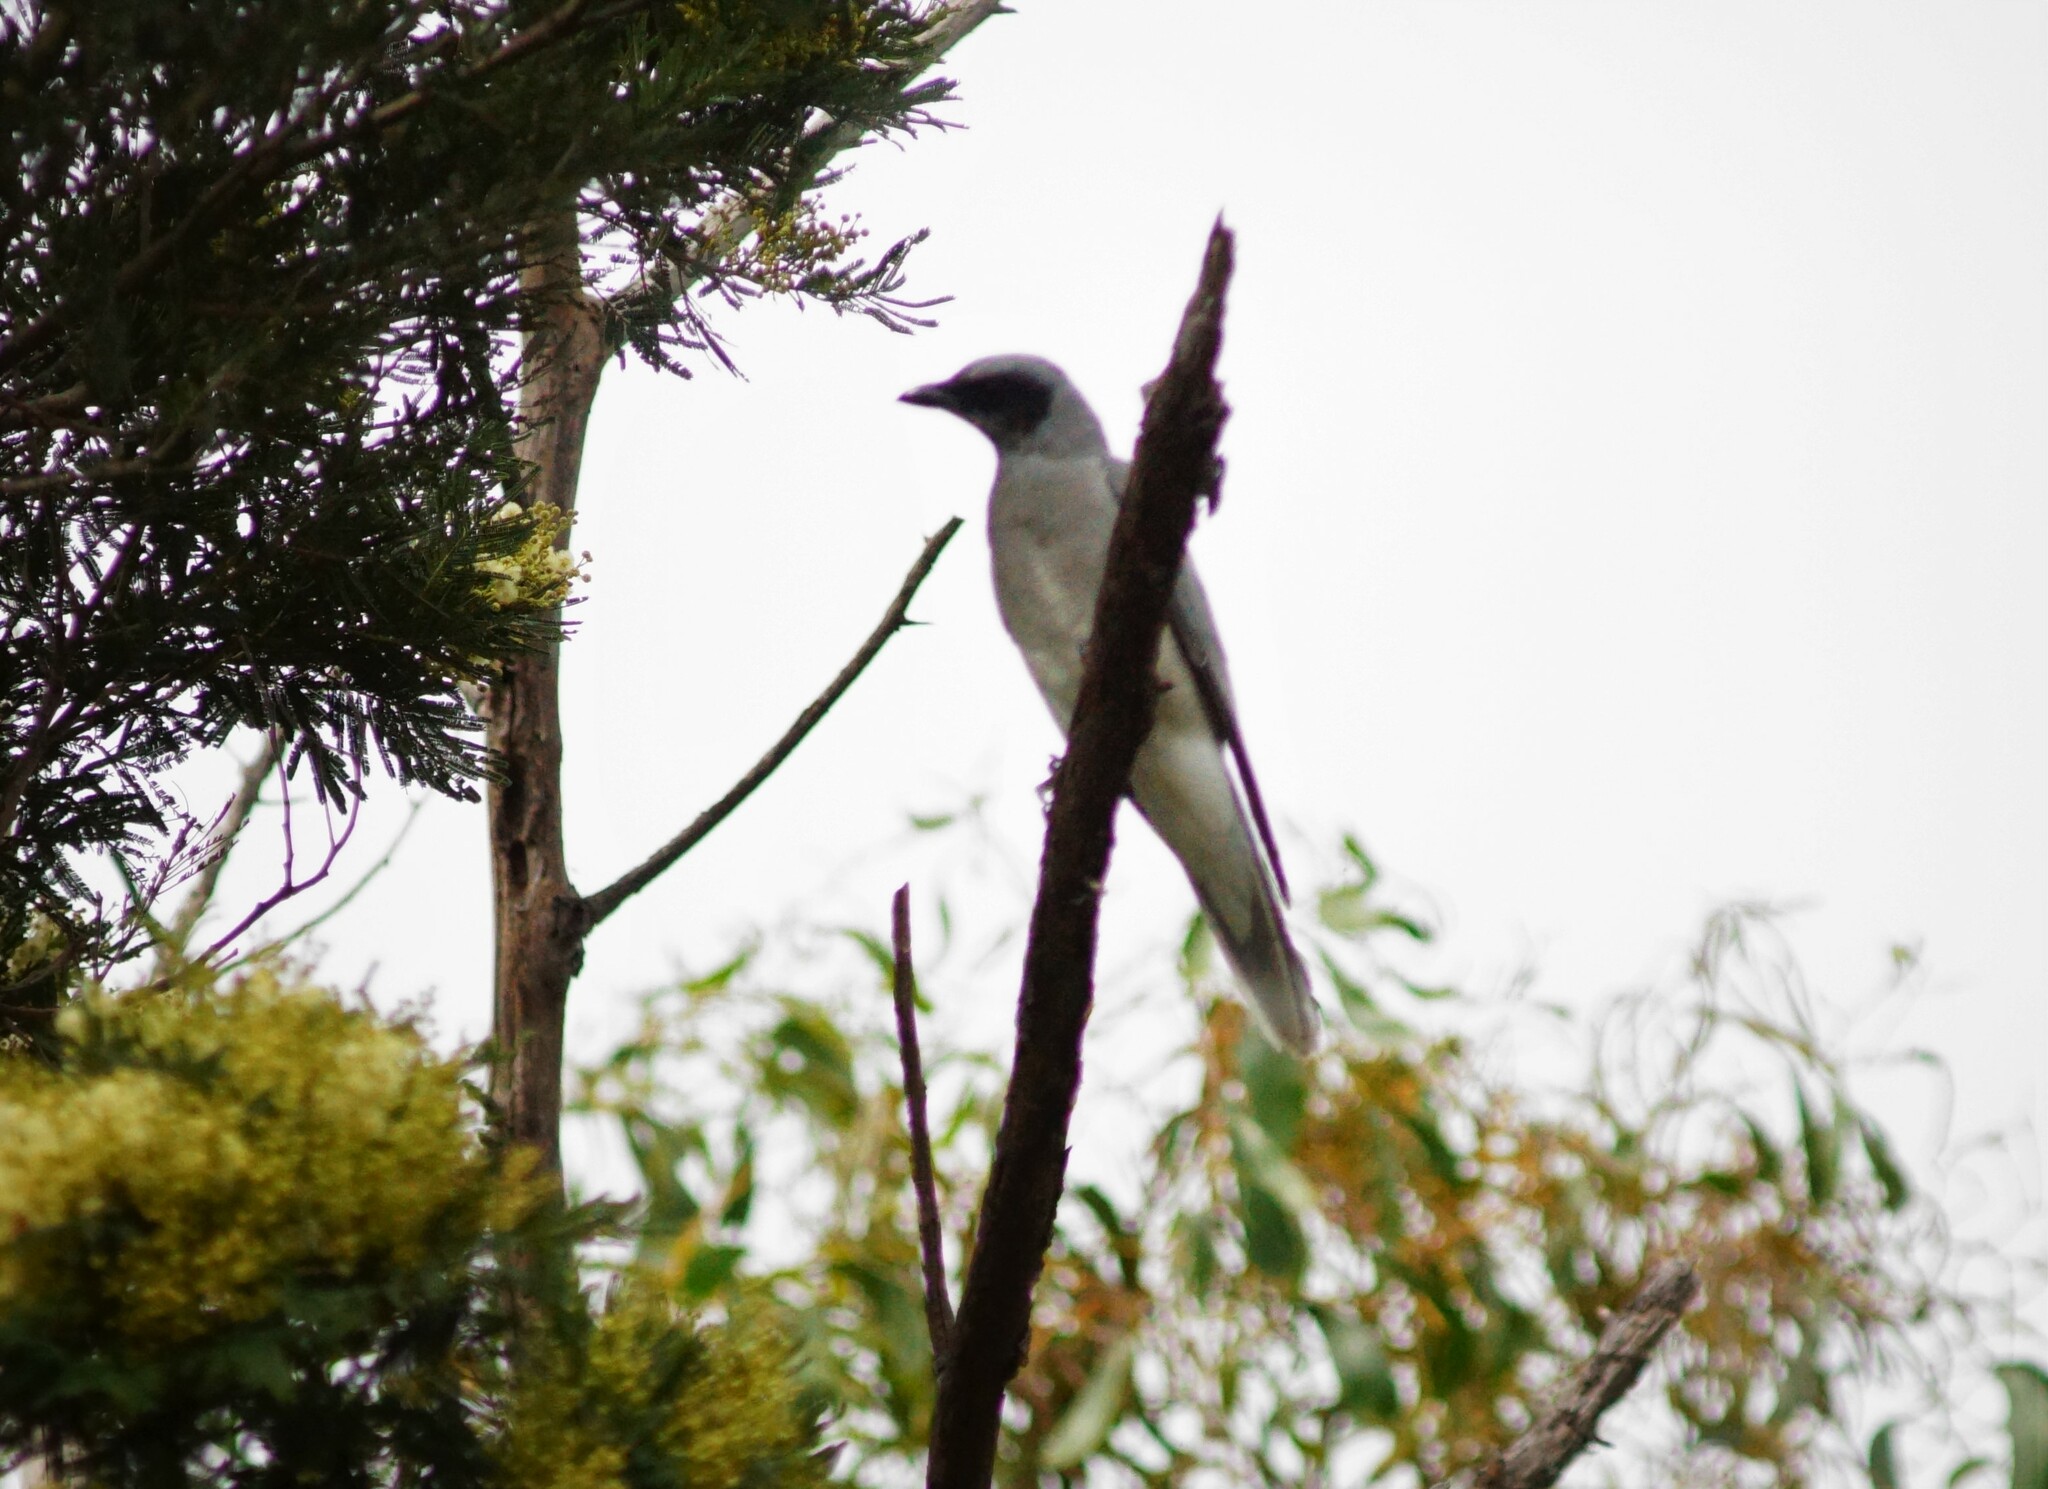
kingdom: Animalia
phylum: Chordata
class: Aves
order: Passeriformes
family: Campephagidae
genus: Coracina
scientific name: Coracina novaehollandiae
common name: Black-faced cuckooshrike
